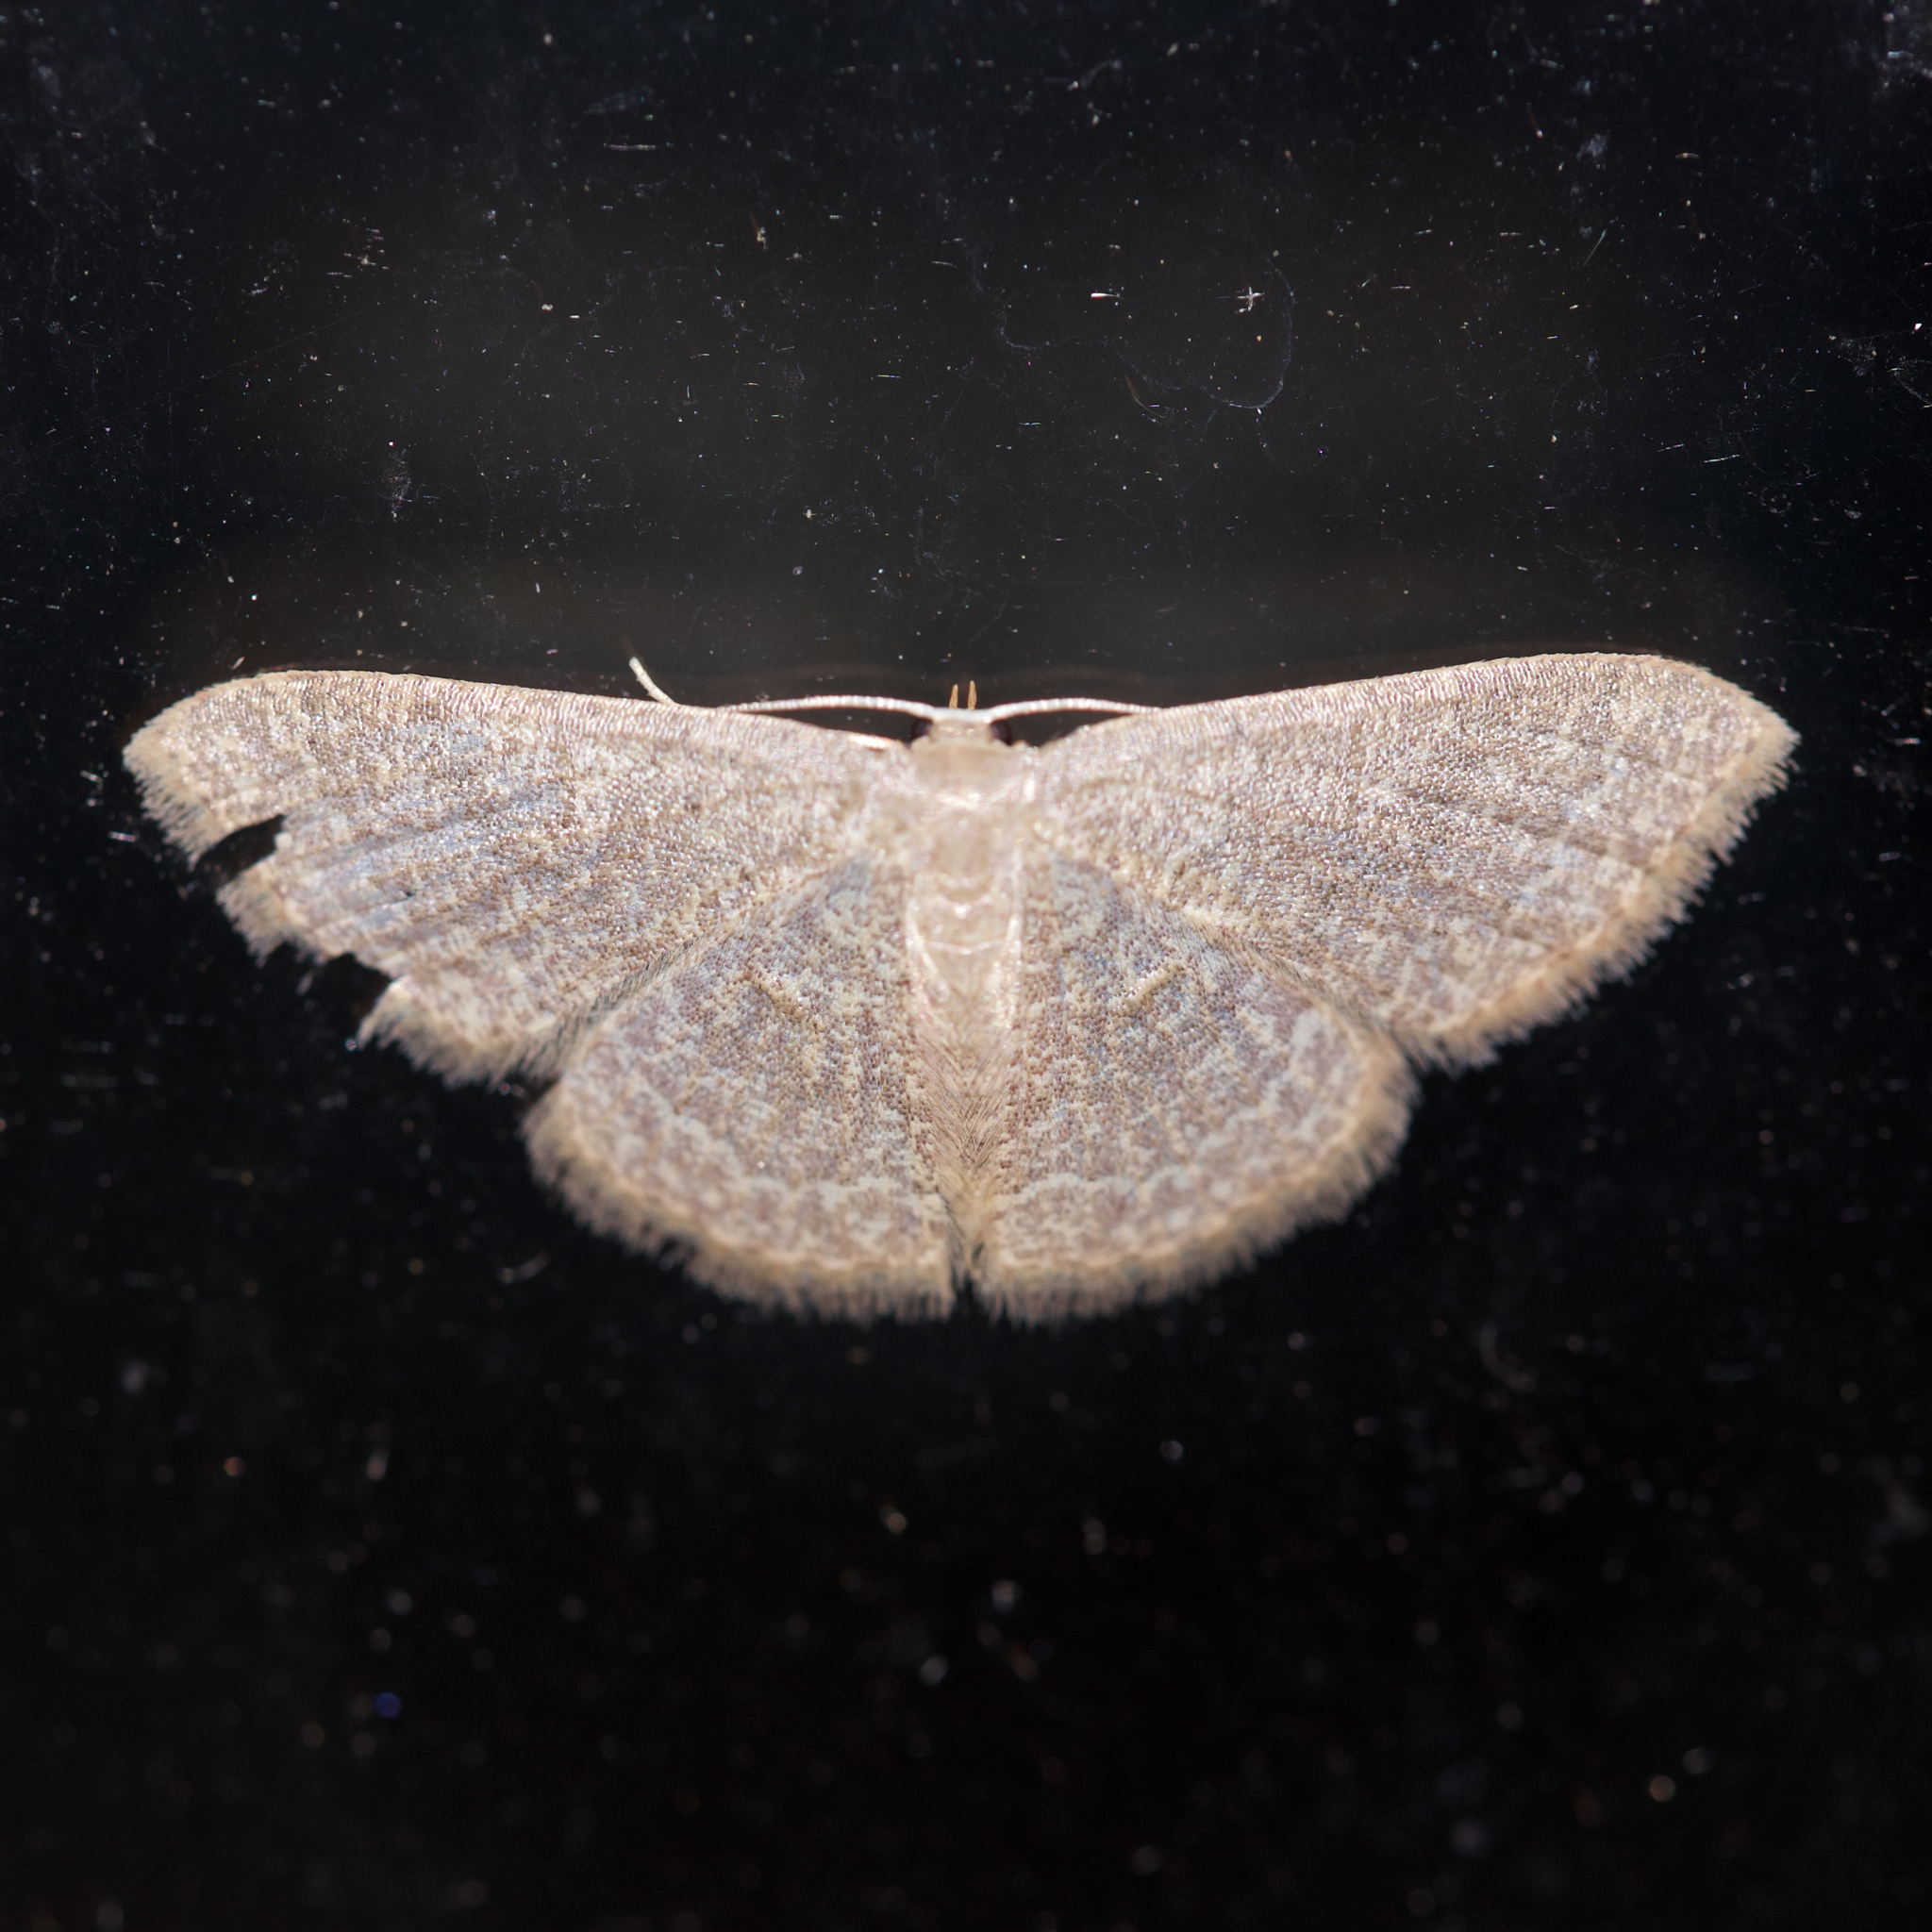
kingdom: Animalia
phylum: Arthropoda
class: Insecta
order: Lepidoptera
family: Geometridae
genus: Pleuroprucha
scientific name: Pleuroprucha insulsaria
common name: Common tan wave
